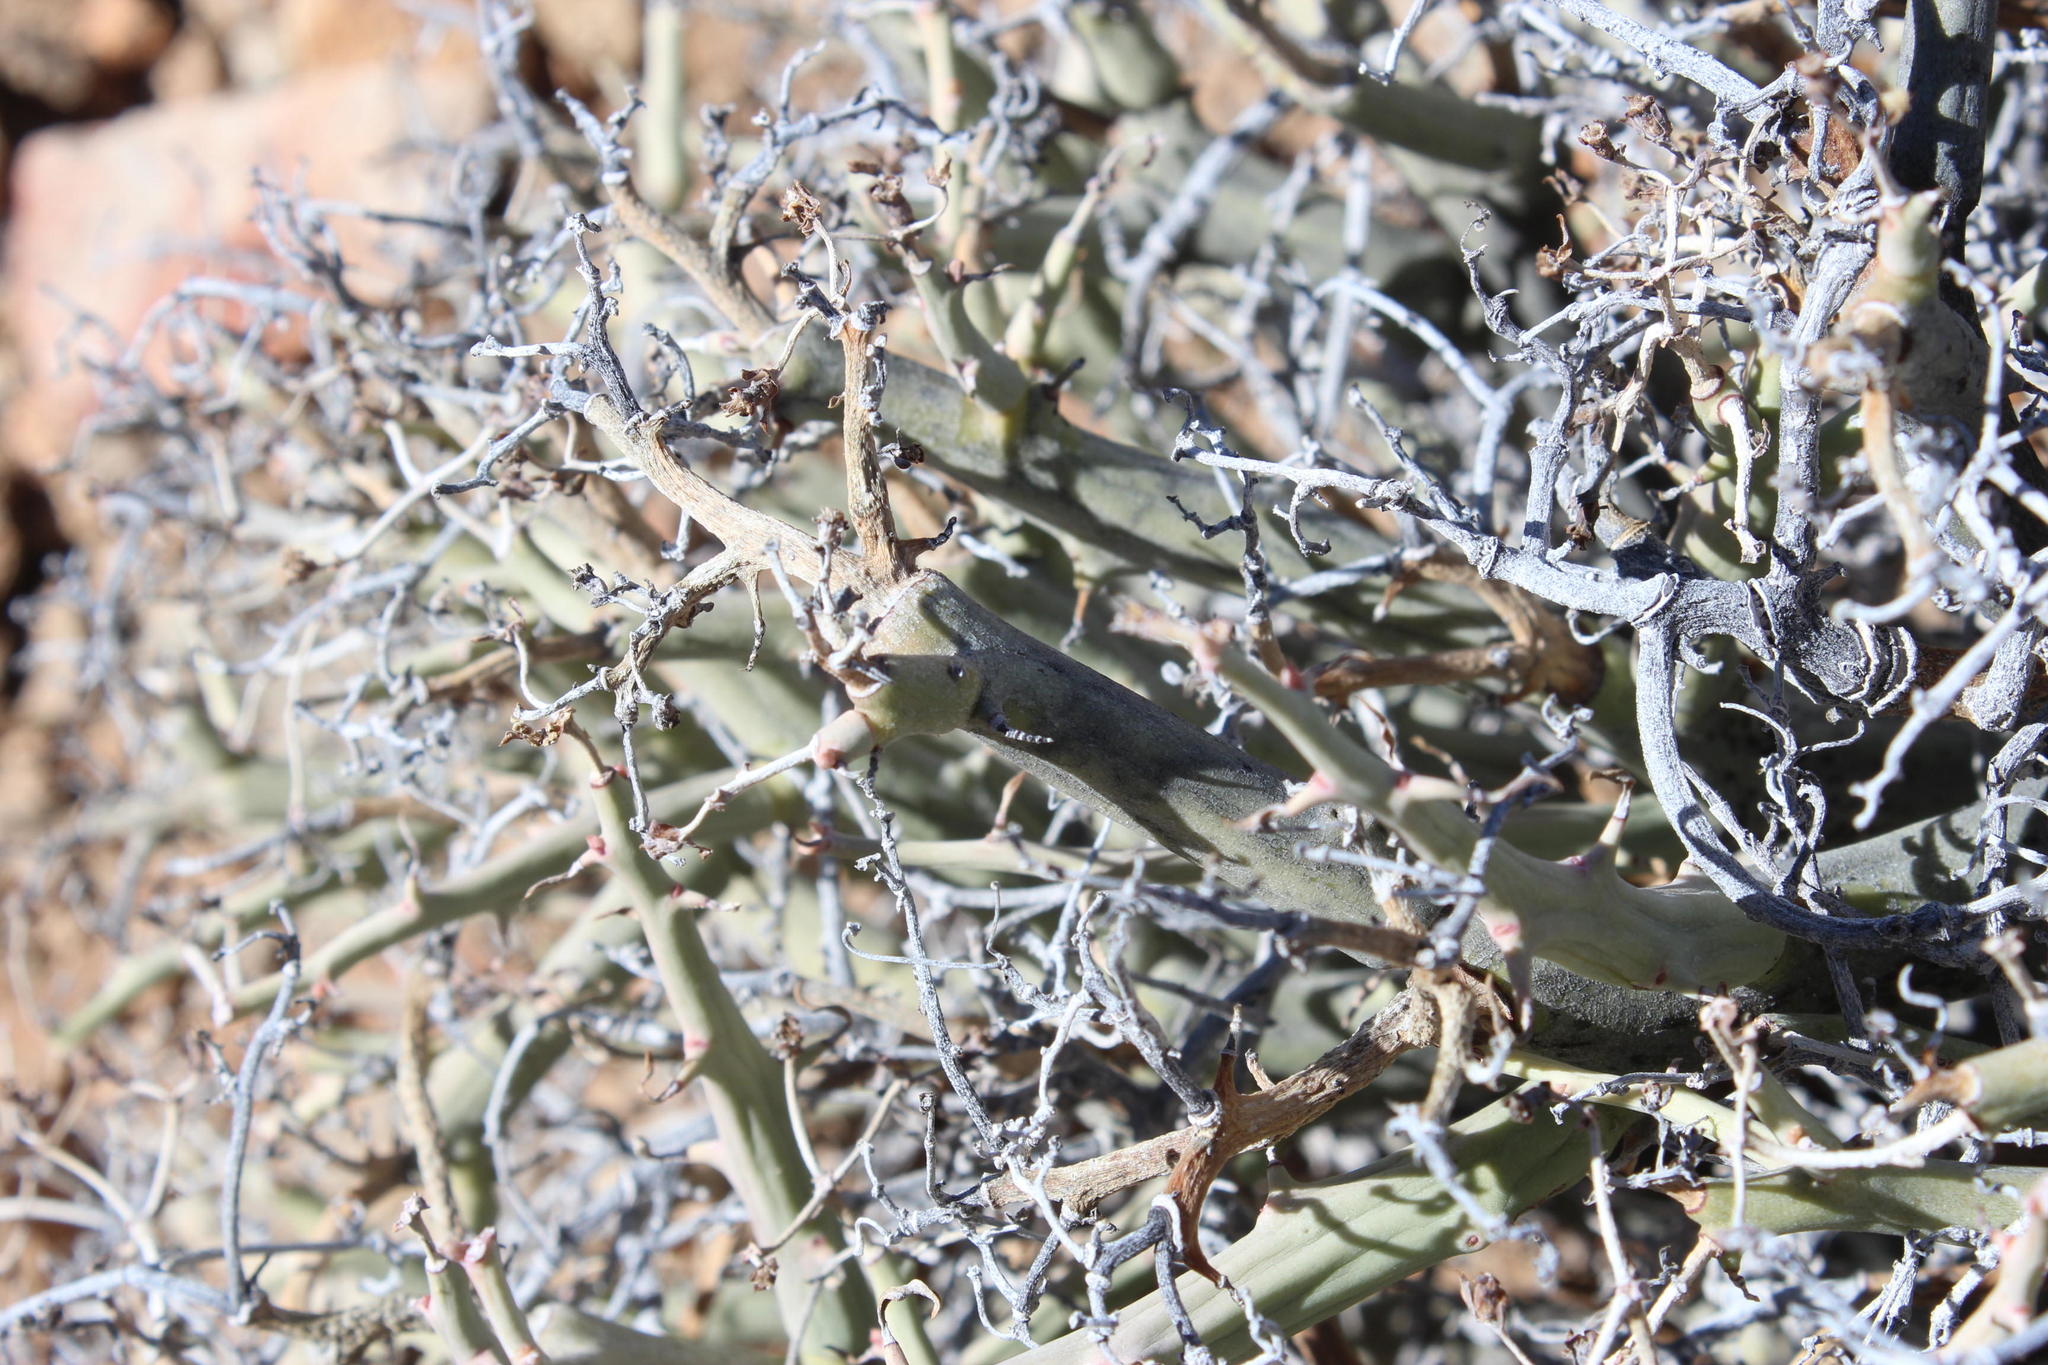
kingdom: Plantae
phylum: Tracheophyta
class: Magnoliopsida
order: Malpighiales
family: Euphorbiaceae
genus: Euphorbia
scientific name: Euphorbia gariepina
